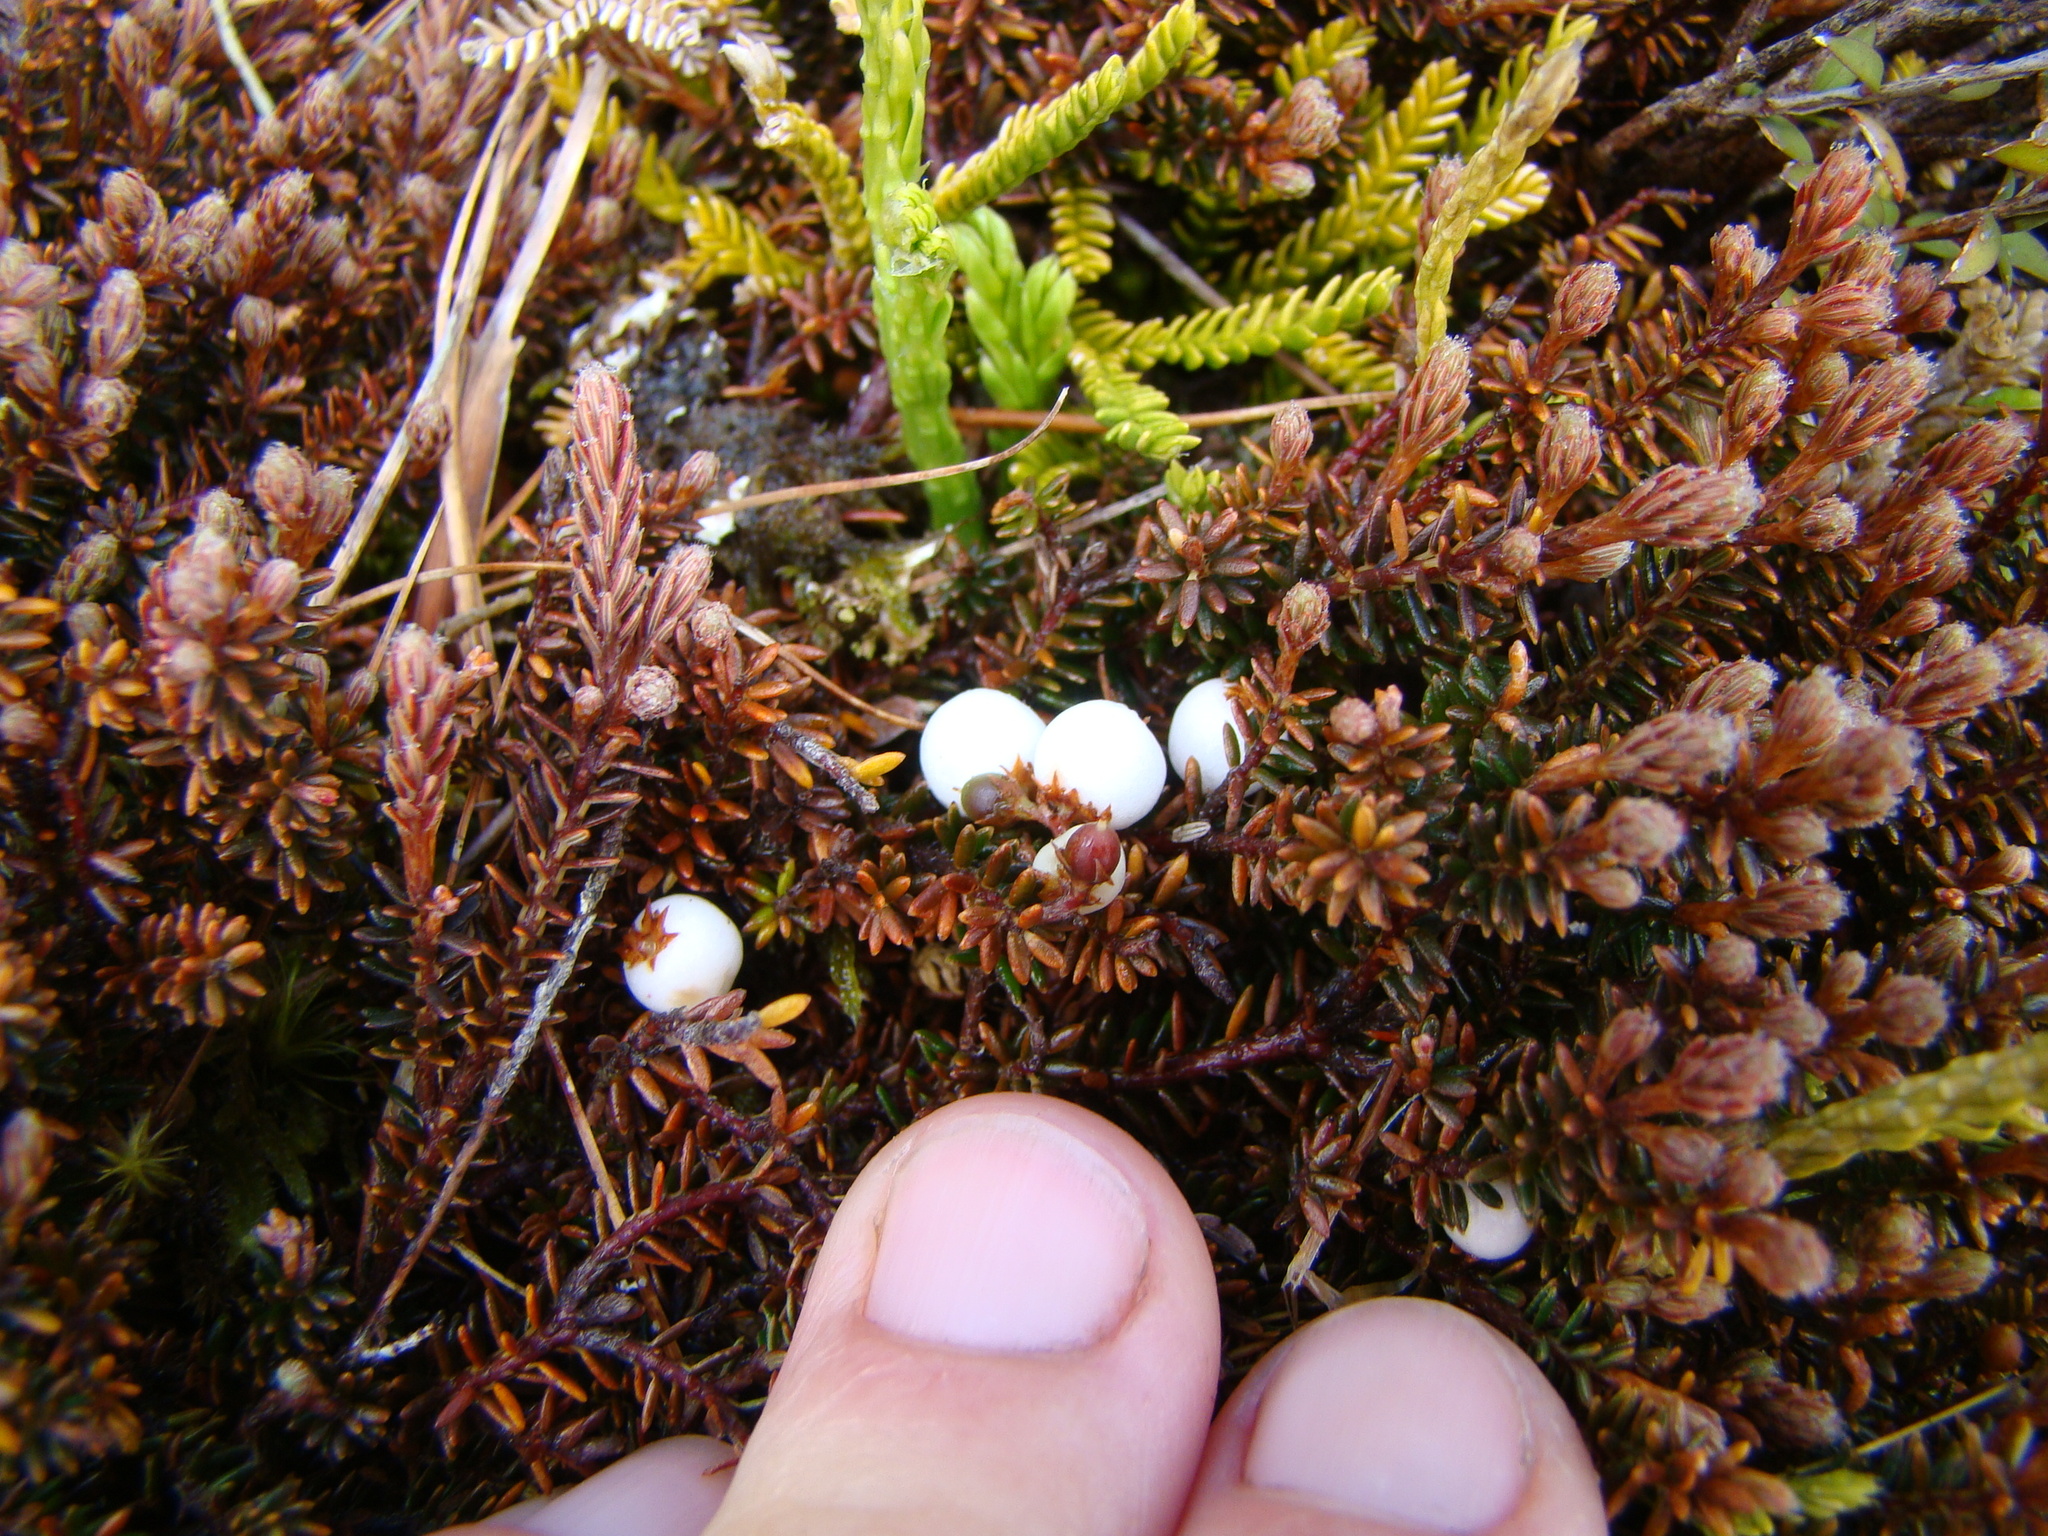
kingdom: Plantae
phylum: Tracheophyta
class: Magnoliopsida
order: Ericales
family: Ericaceae
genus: Androstoma
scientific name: Androstoma empetrifolia
